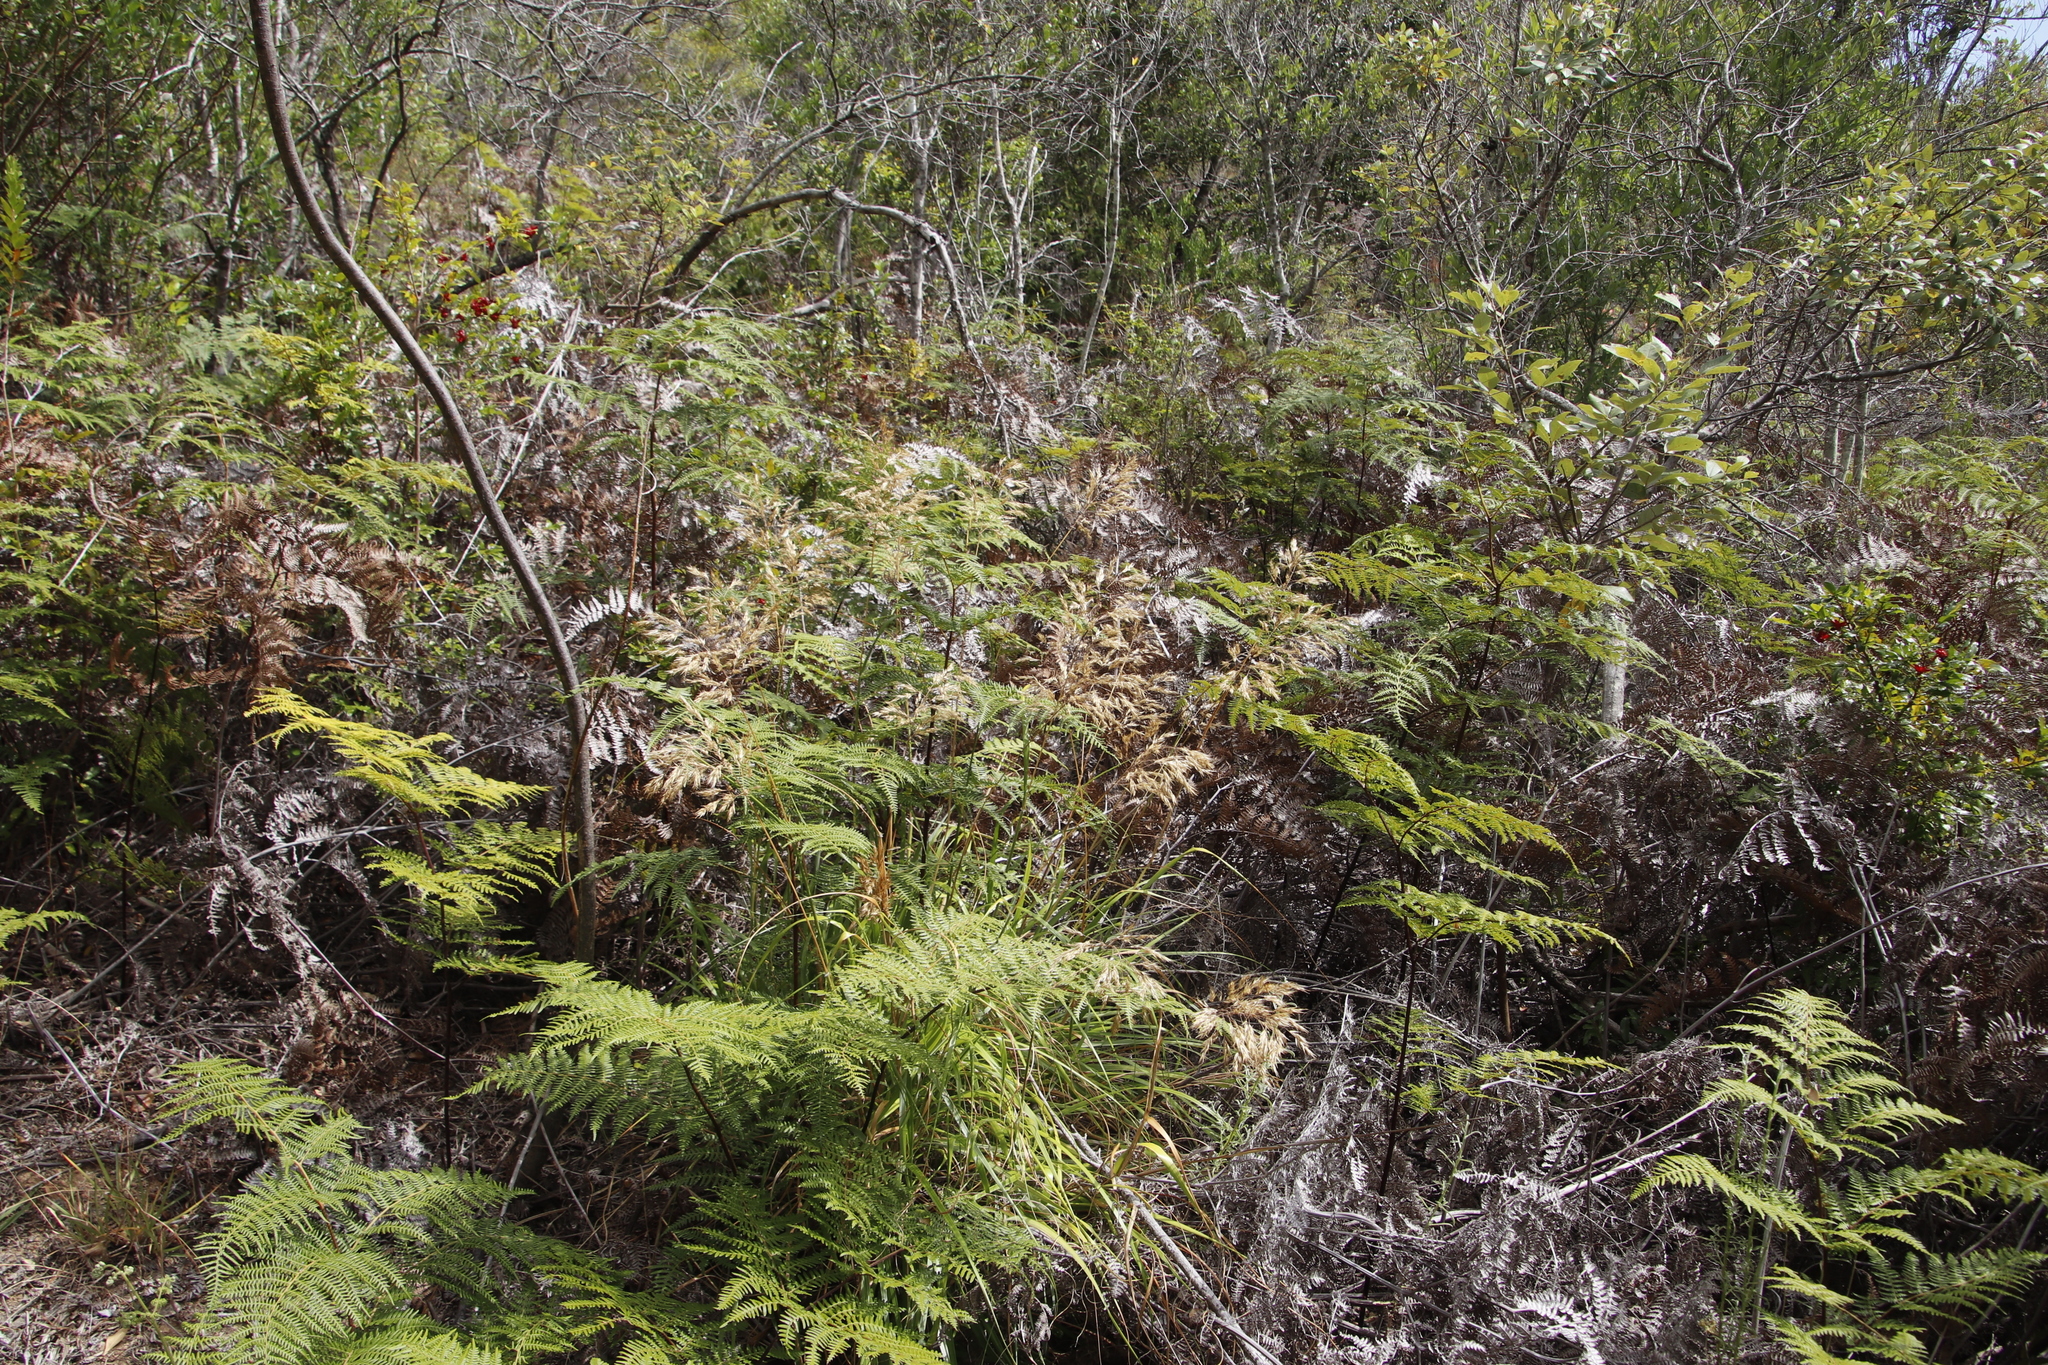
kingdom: Plantae
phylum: Tracheophyta
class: Polypodiopsida
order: Polypodiales
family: Dennstaedtiaceae
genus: Pteridium
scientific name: Pteridium aquilinum
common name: Bracken
